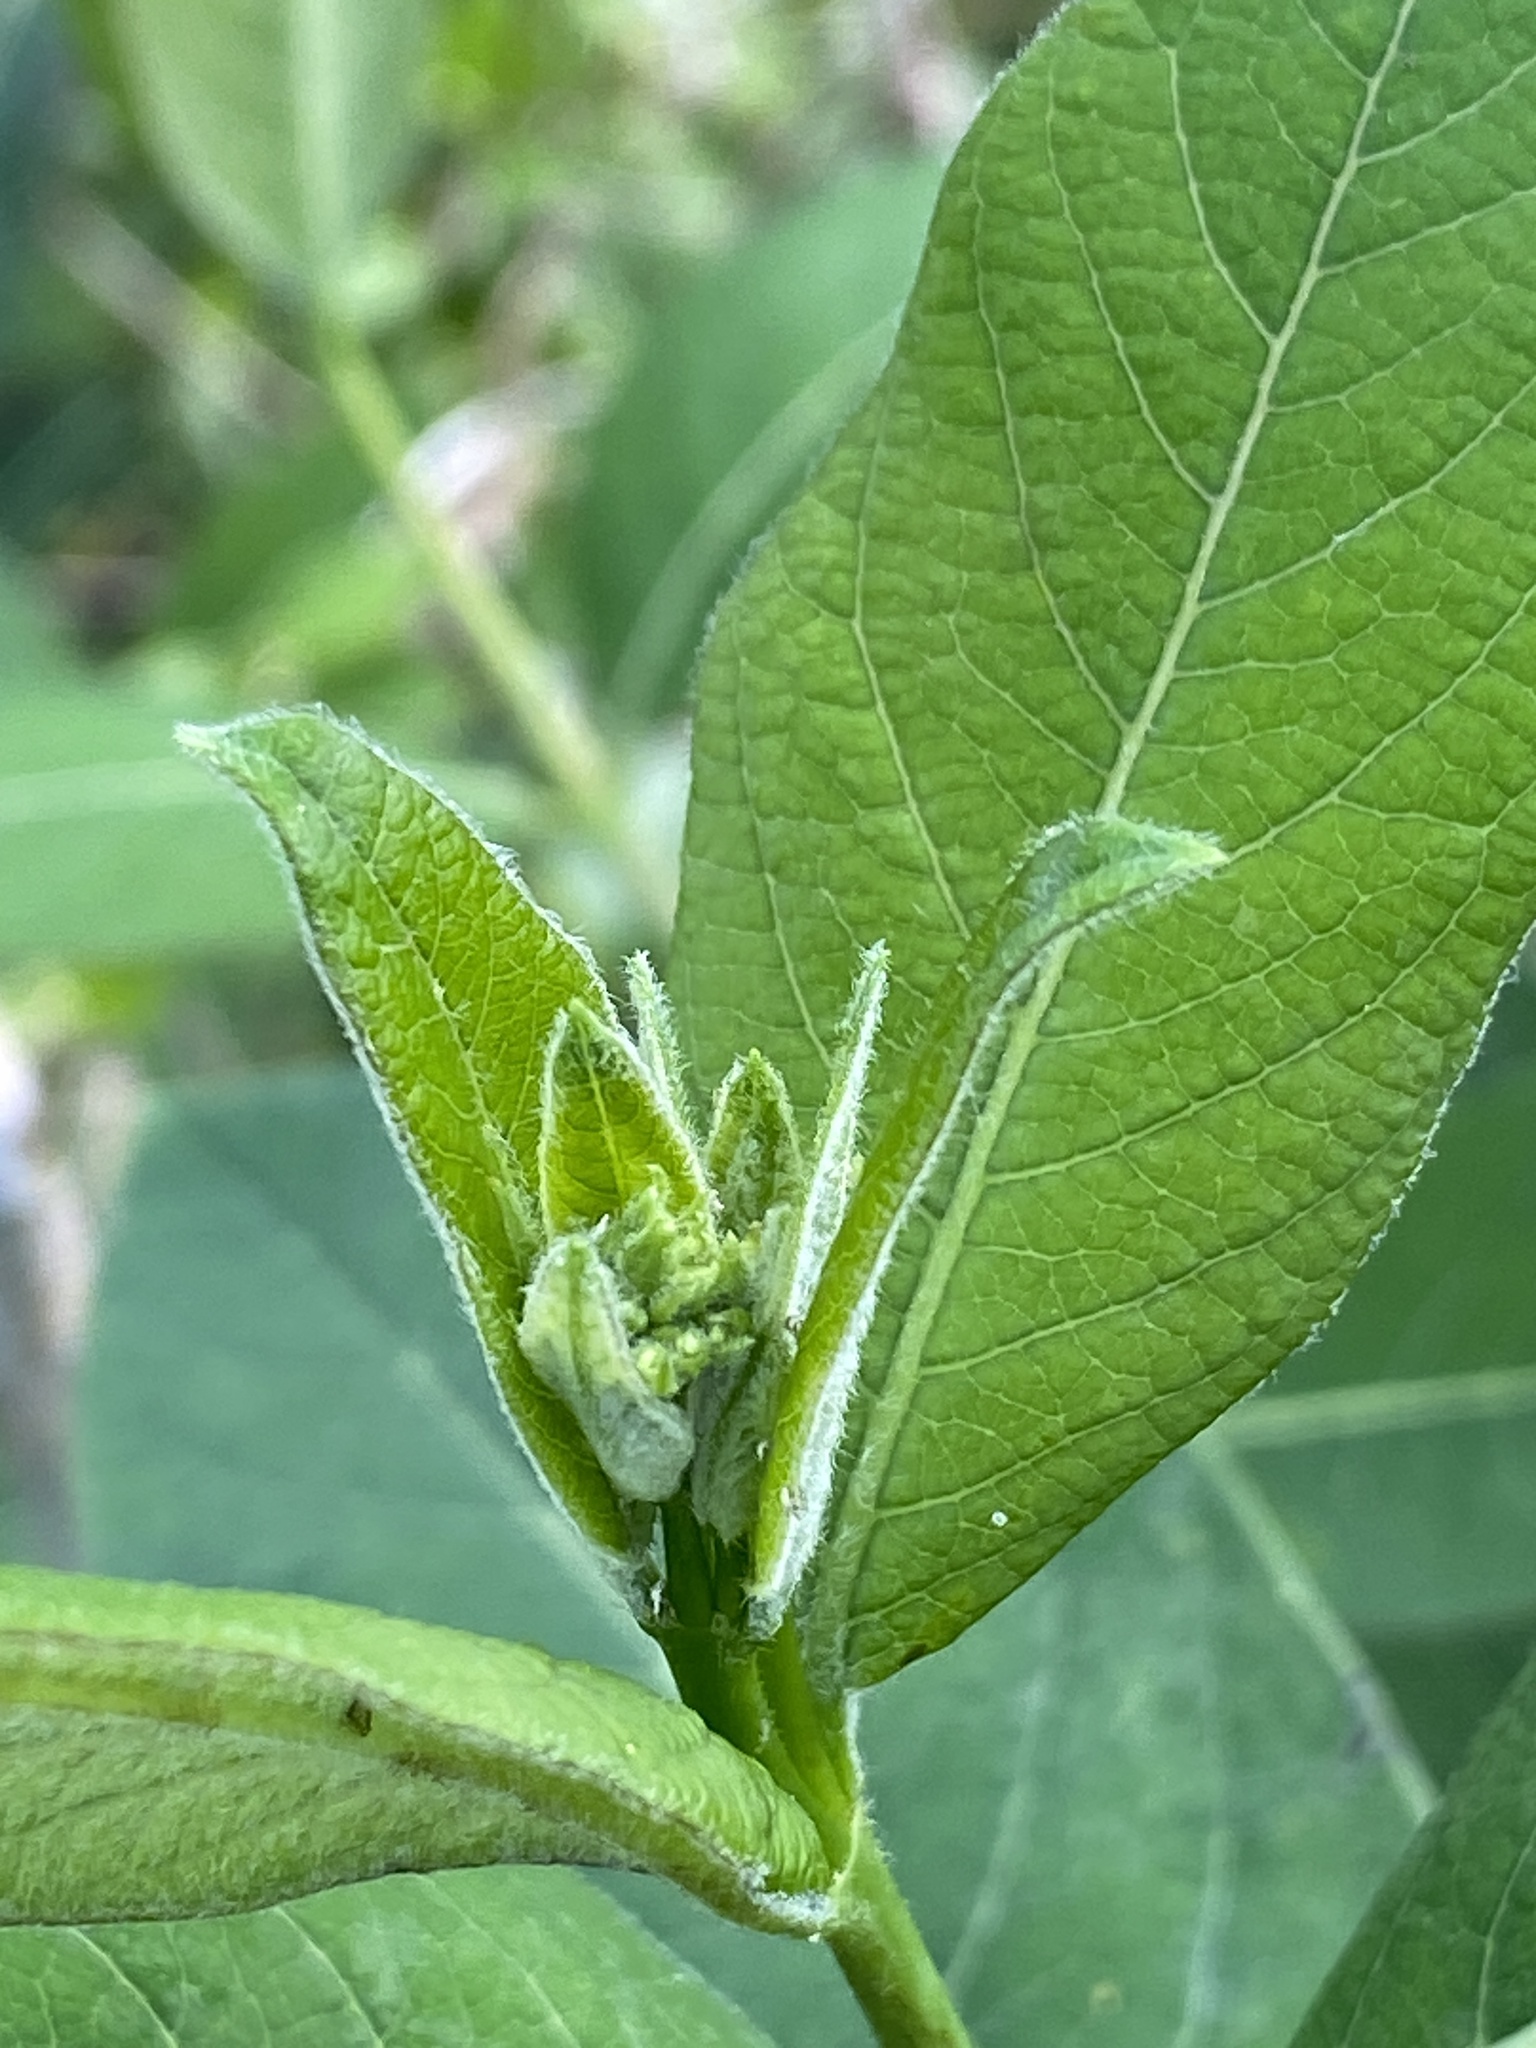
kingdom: Plantae
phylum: Tracheophyta
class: Magnoliopsida
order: Gentianales
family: Apocynaceae
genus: Apocynum
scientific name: Apocynum cannabinum
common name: Hemp dogbane
